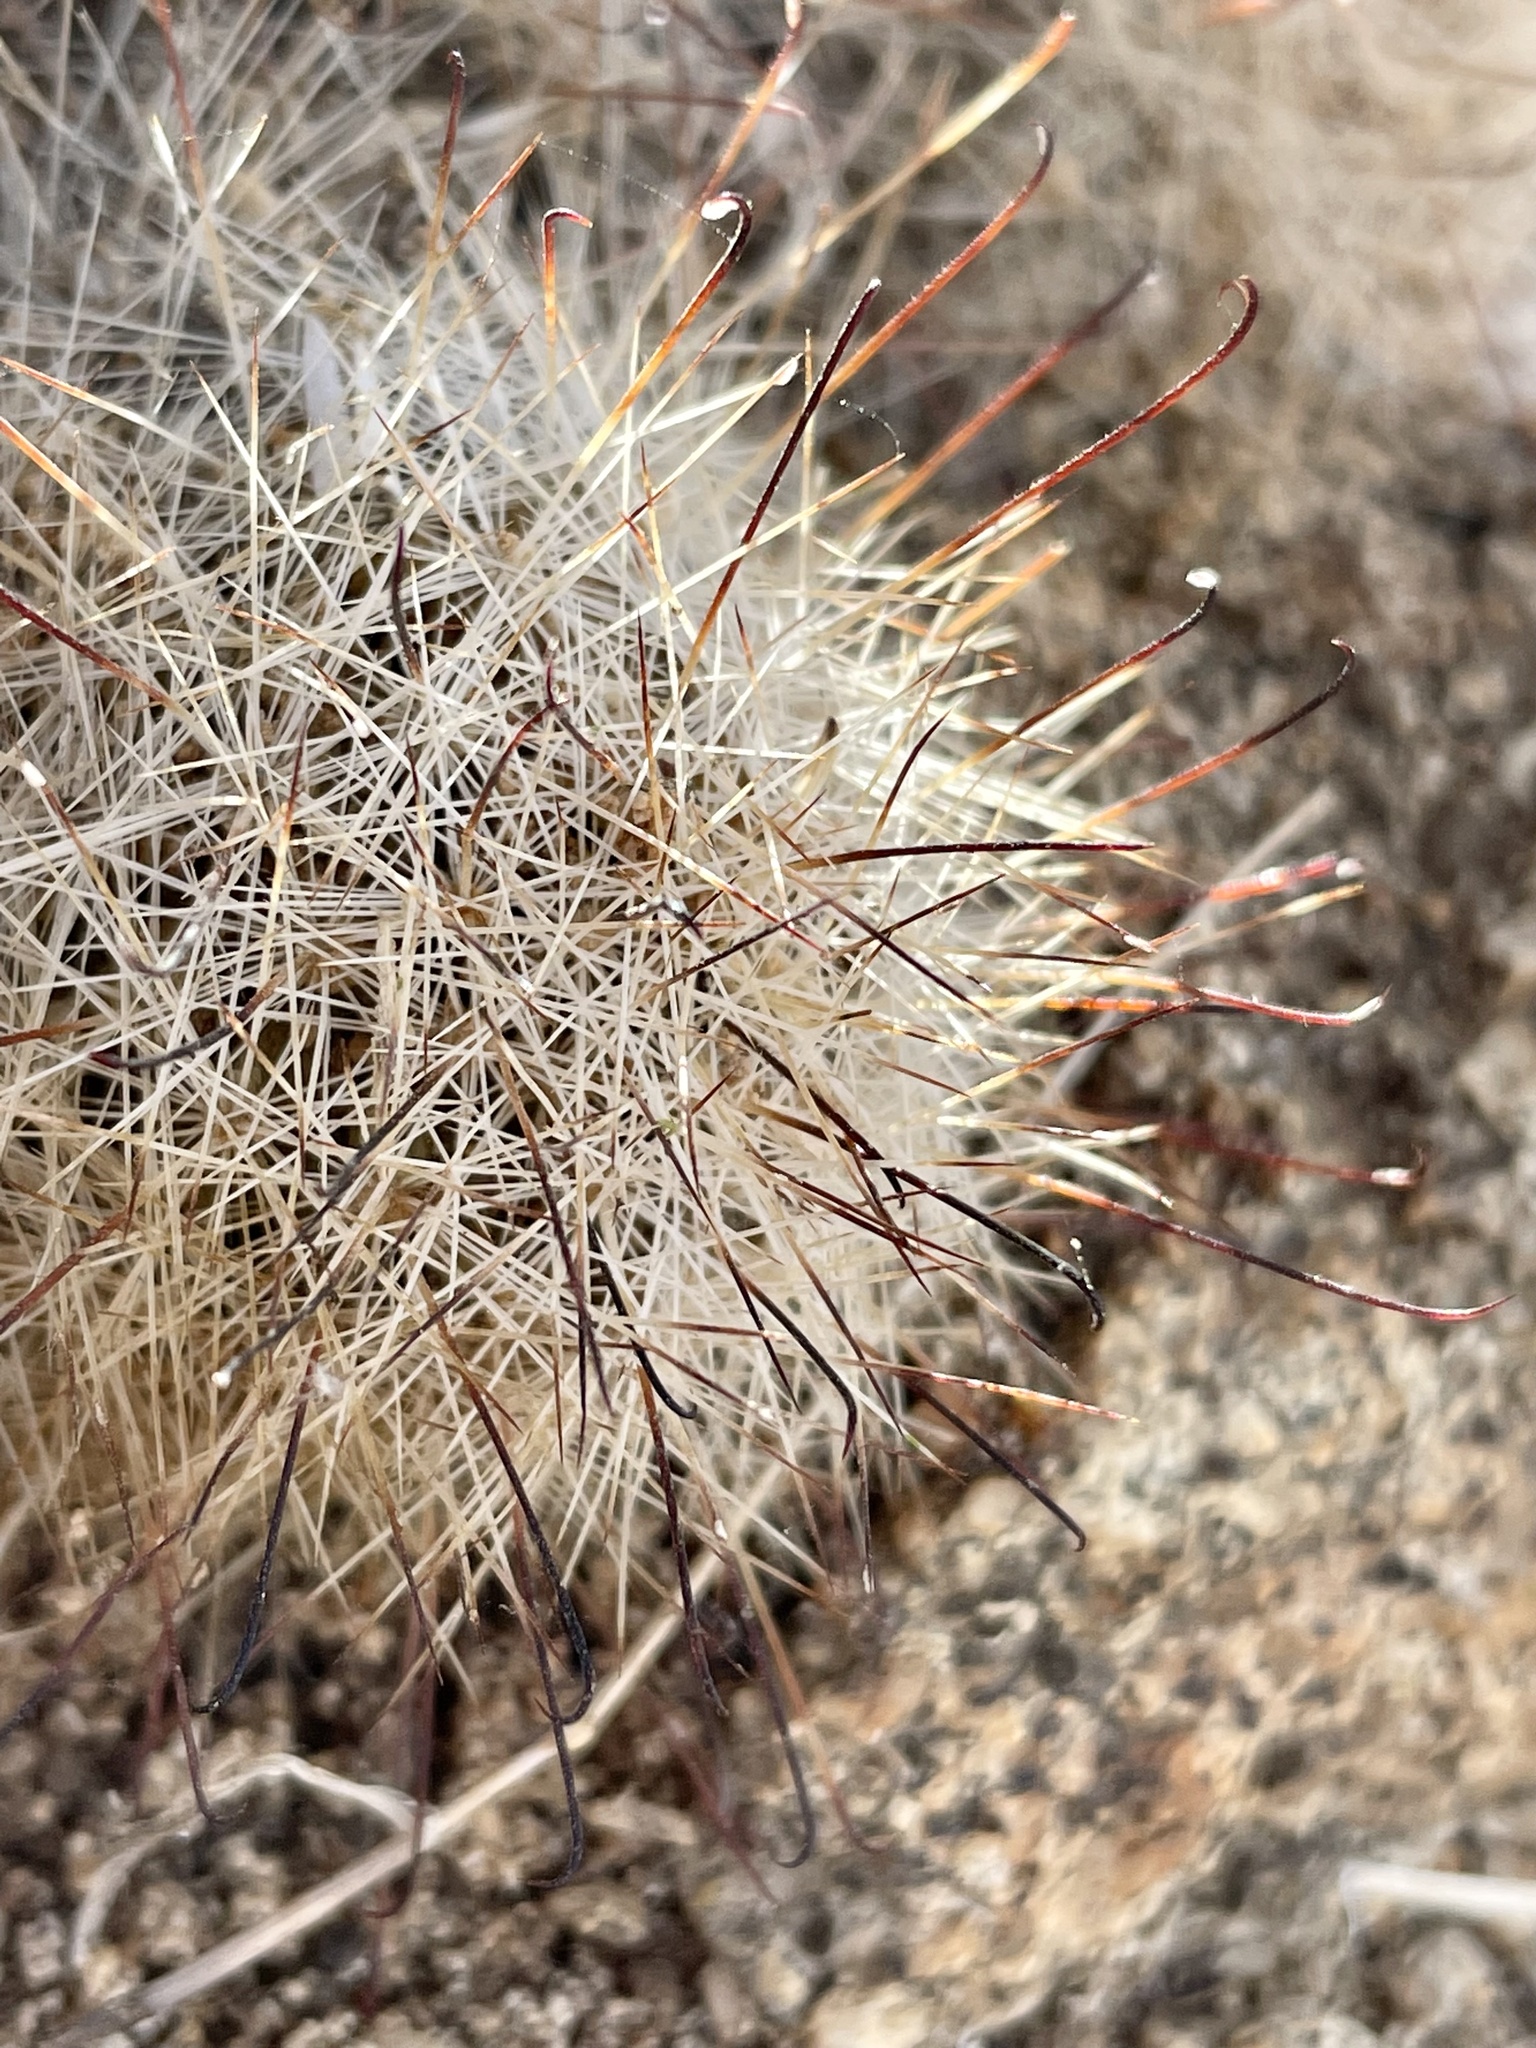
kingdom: Plantae
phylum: Tracheophyta
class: Magnoliopsida
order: Caryophyllales
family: Cactaceae
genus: Cochemiea
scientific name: Cochemiea tetrancistra
